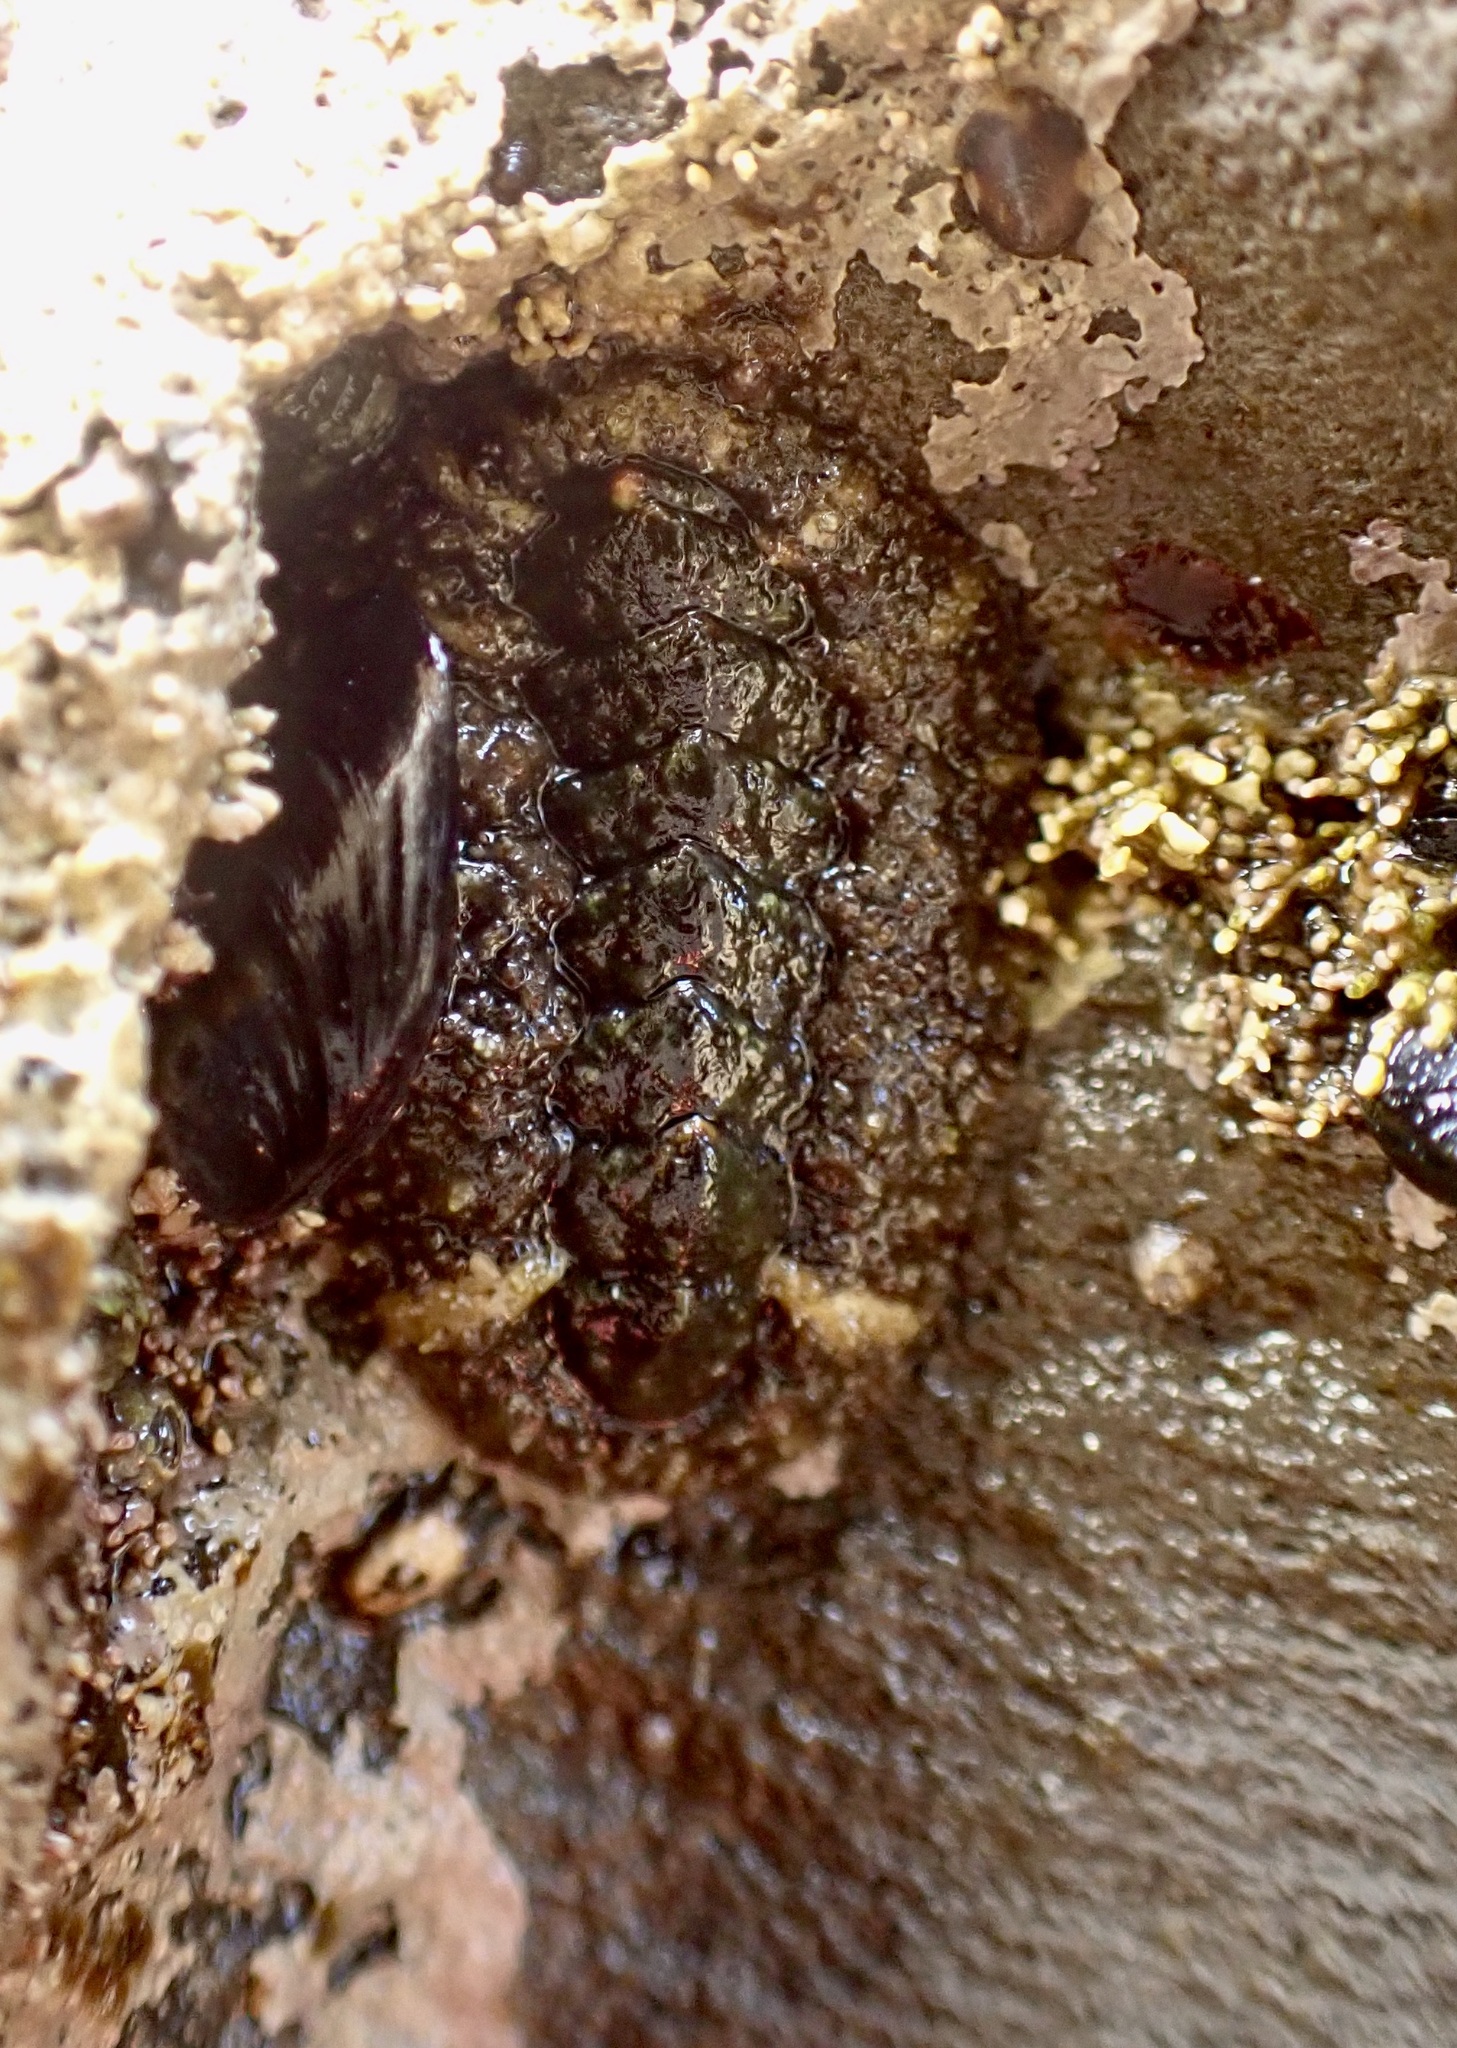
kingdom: Animalia
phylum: Mollusca
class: Polyplacophora
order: Chitonida
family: Tonicellidae
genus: Nuttallina
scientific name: Nuttallina californica
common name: California nuttall chiton
